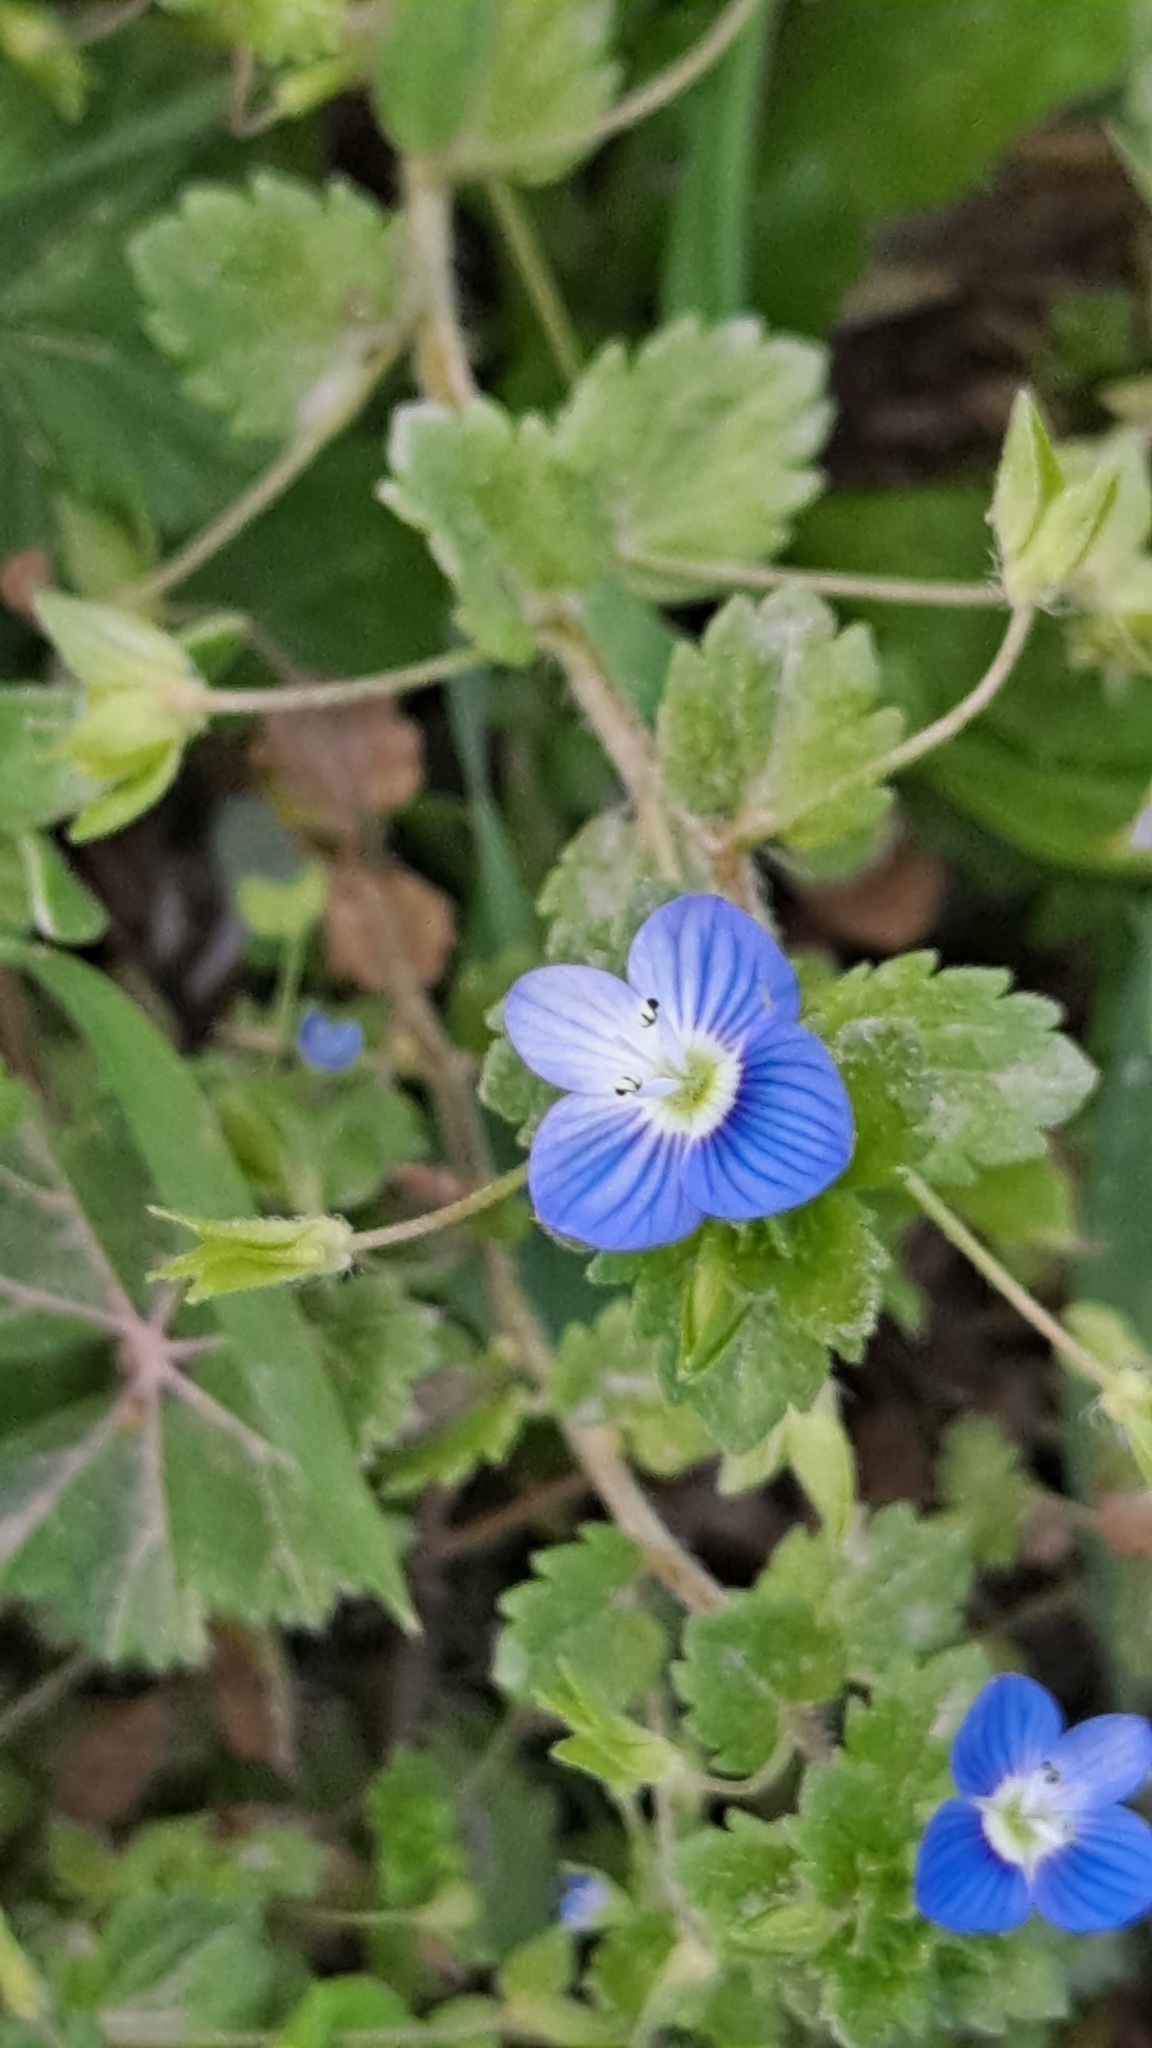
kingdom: Plantae
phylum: Tracheophyta
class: Magnoliopsida
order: Lamiales
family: Plantaginaceae
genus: Veronica
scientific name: Veronica persica
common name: Common field-speedwell
